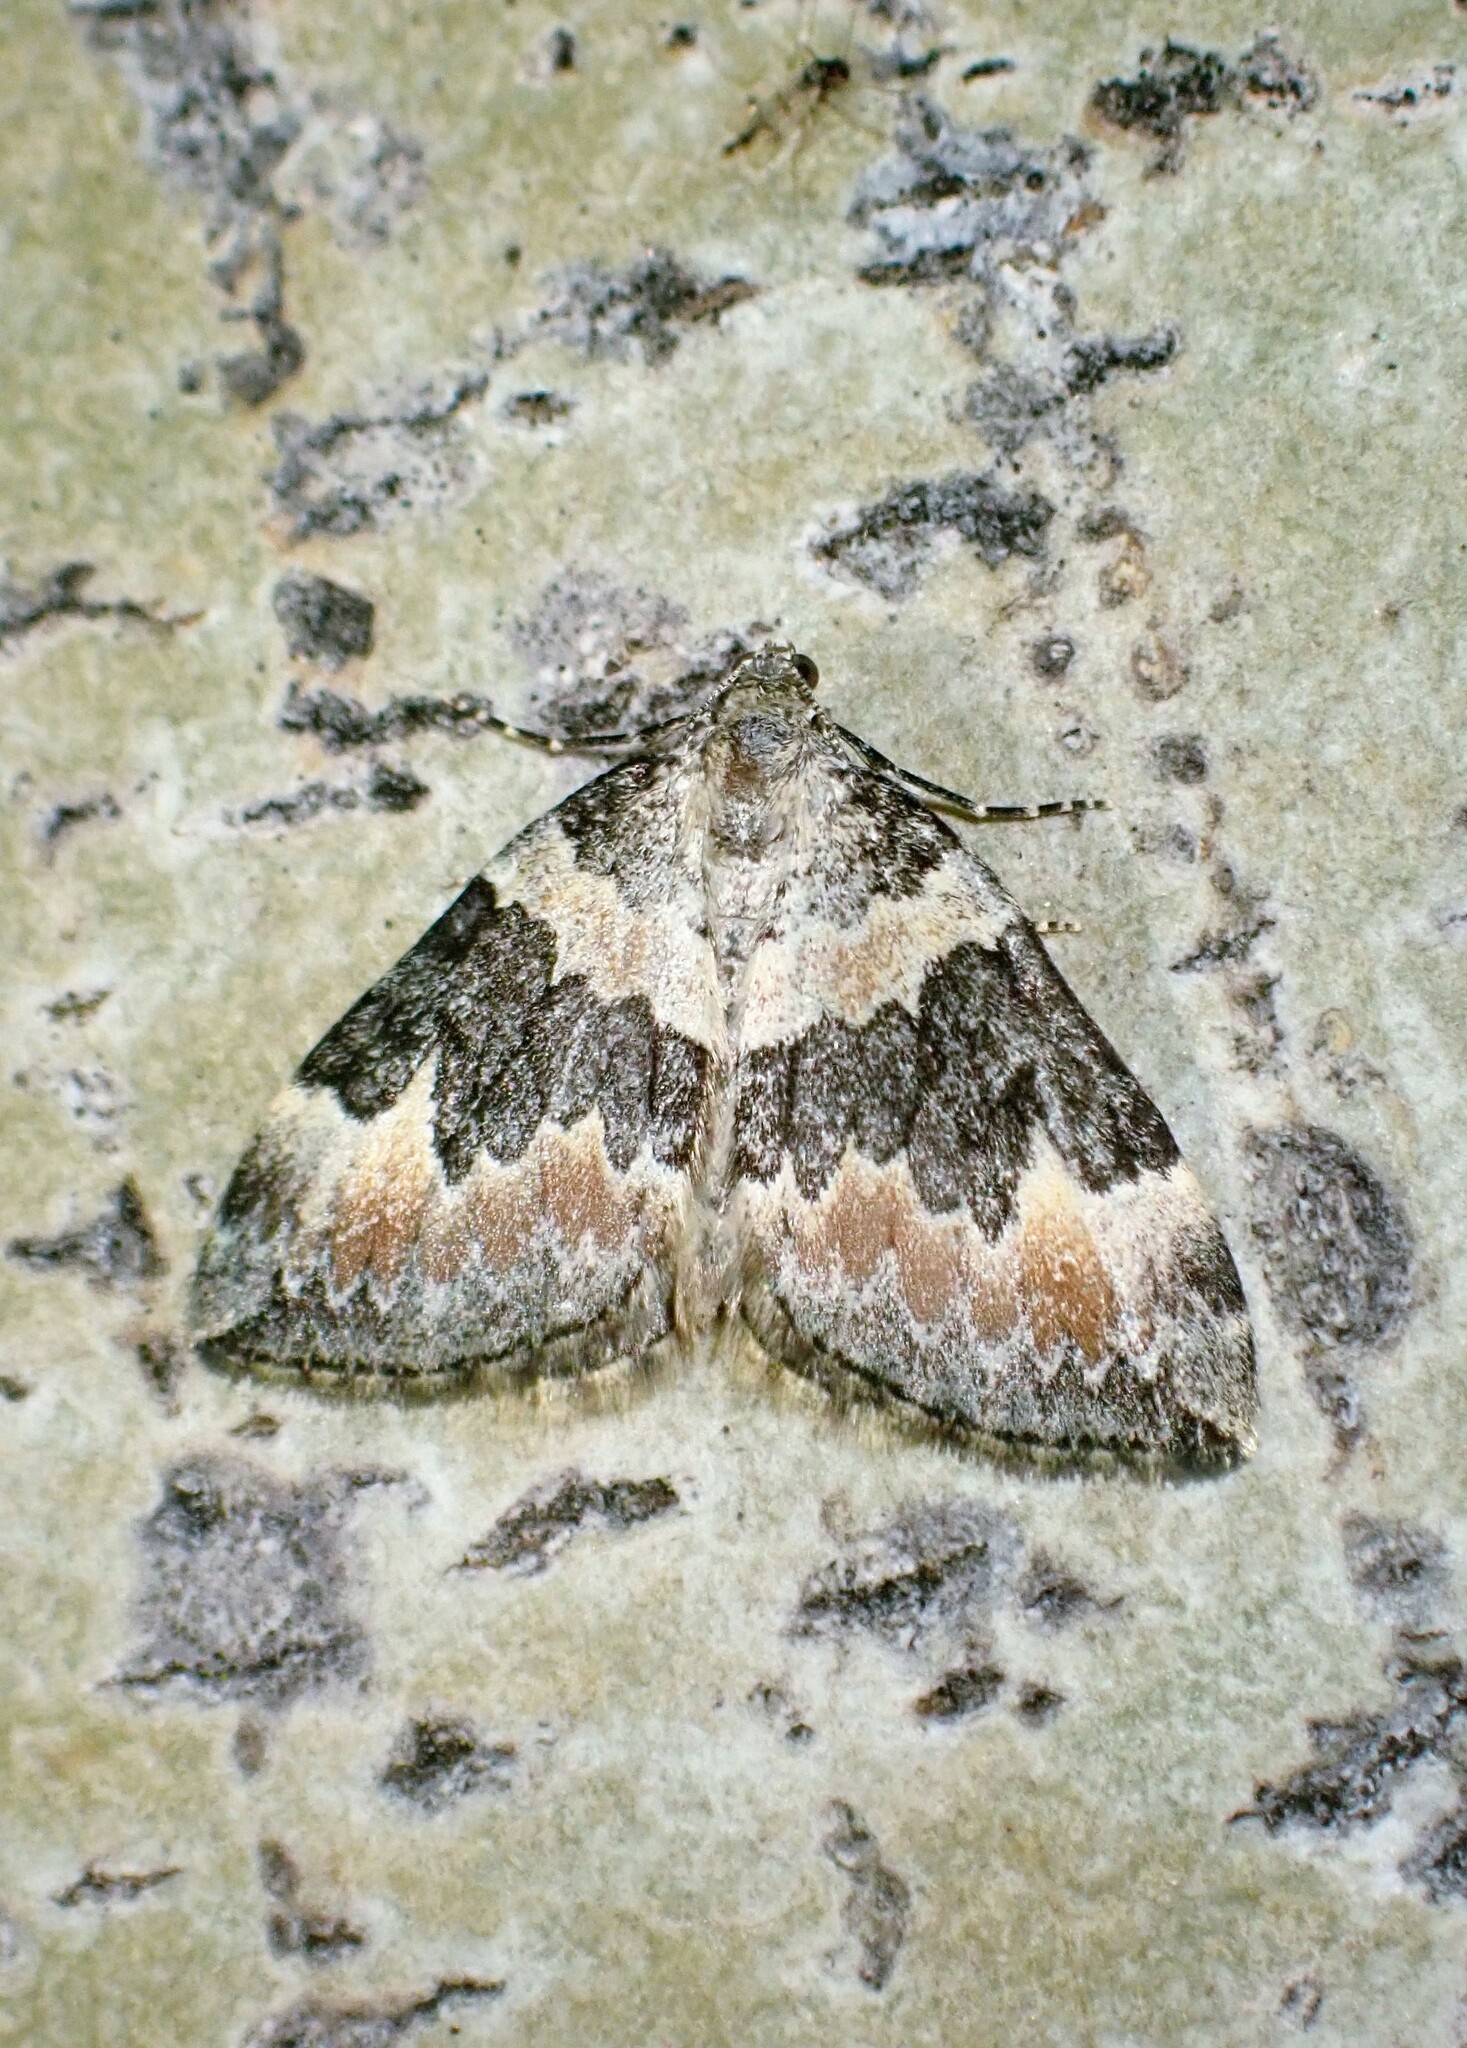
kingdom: Animalia
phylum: Arthropoda
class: Insecta
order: Lepidoptera
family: Geometridae
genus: Dysstroma
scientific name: Dysstroma brunneata
